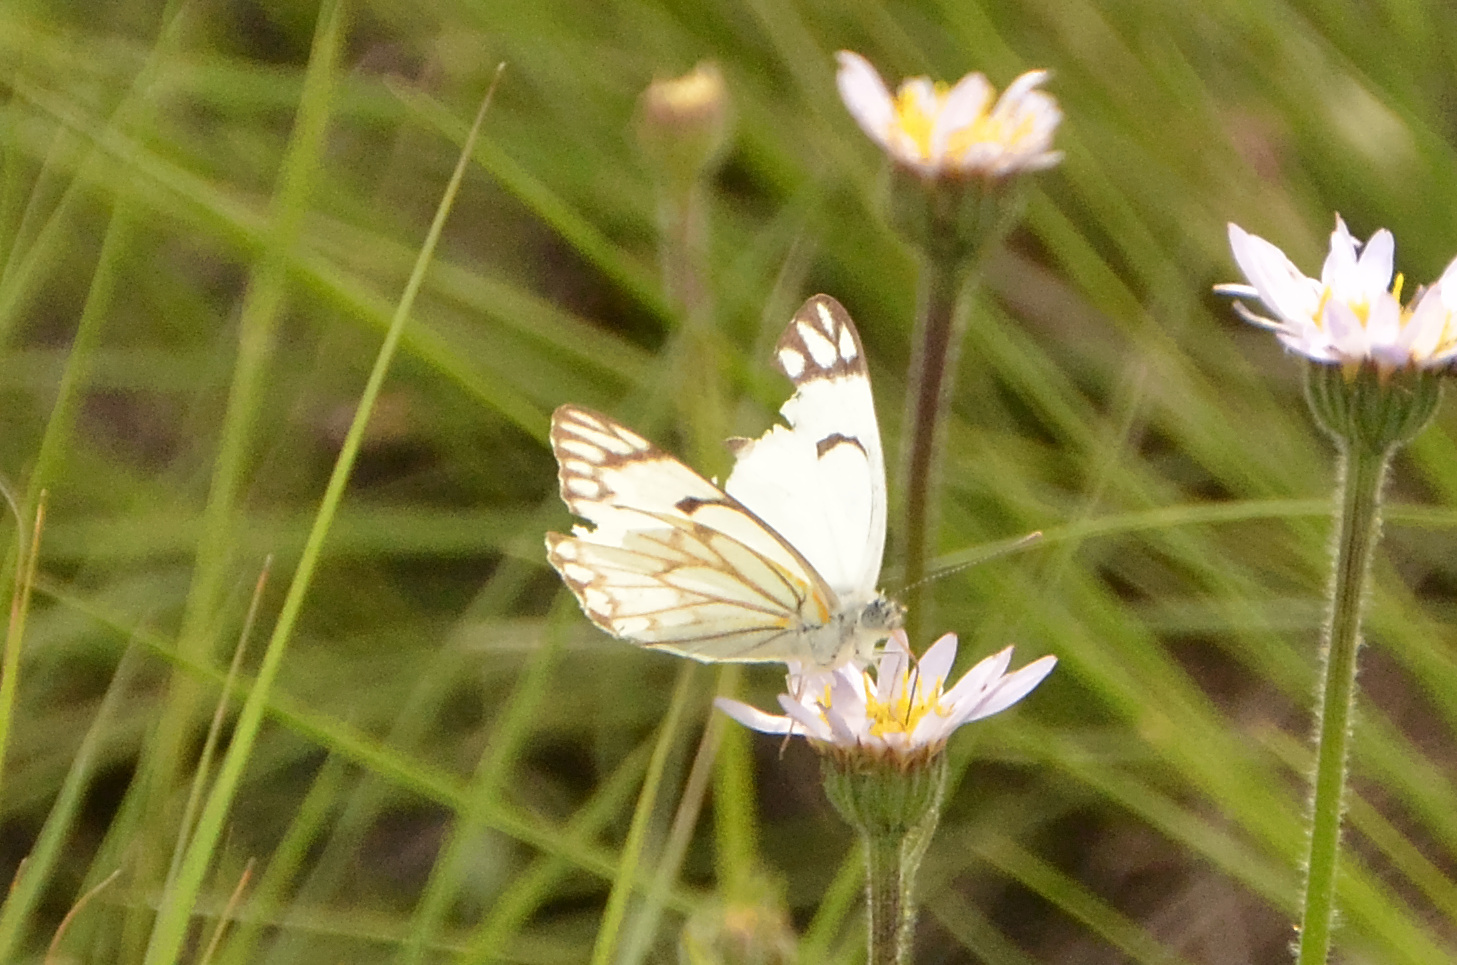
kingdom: Animalia
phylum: Arthropoda
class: Insecta
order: Lepidoptera
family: Pieridae
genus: Belenois
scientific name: Belenois aurota
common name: Brown-veined white
